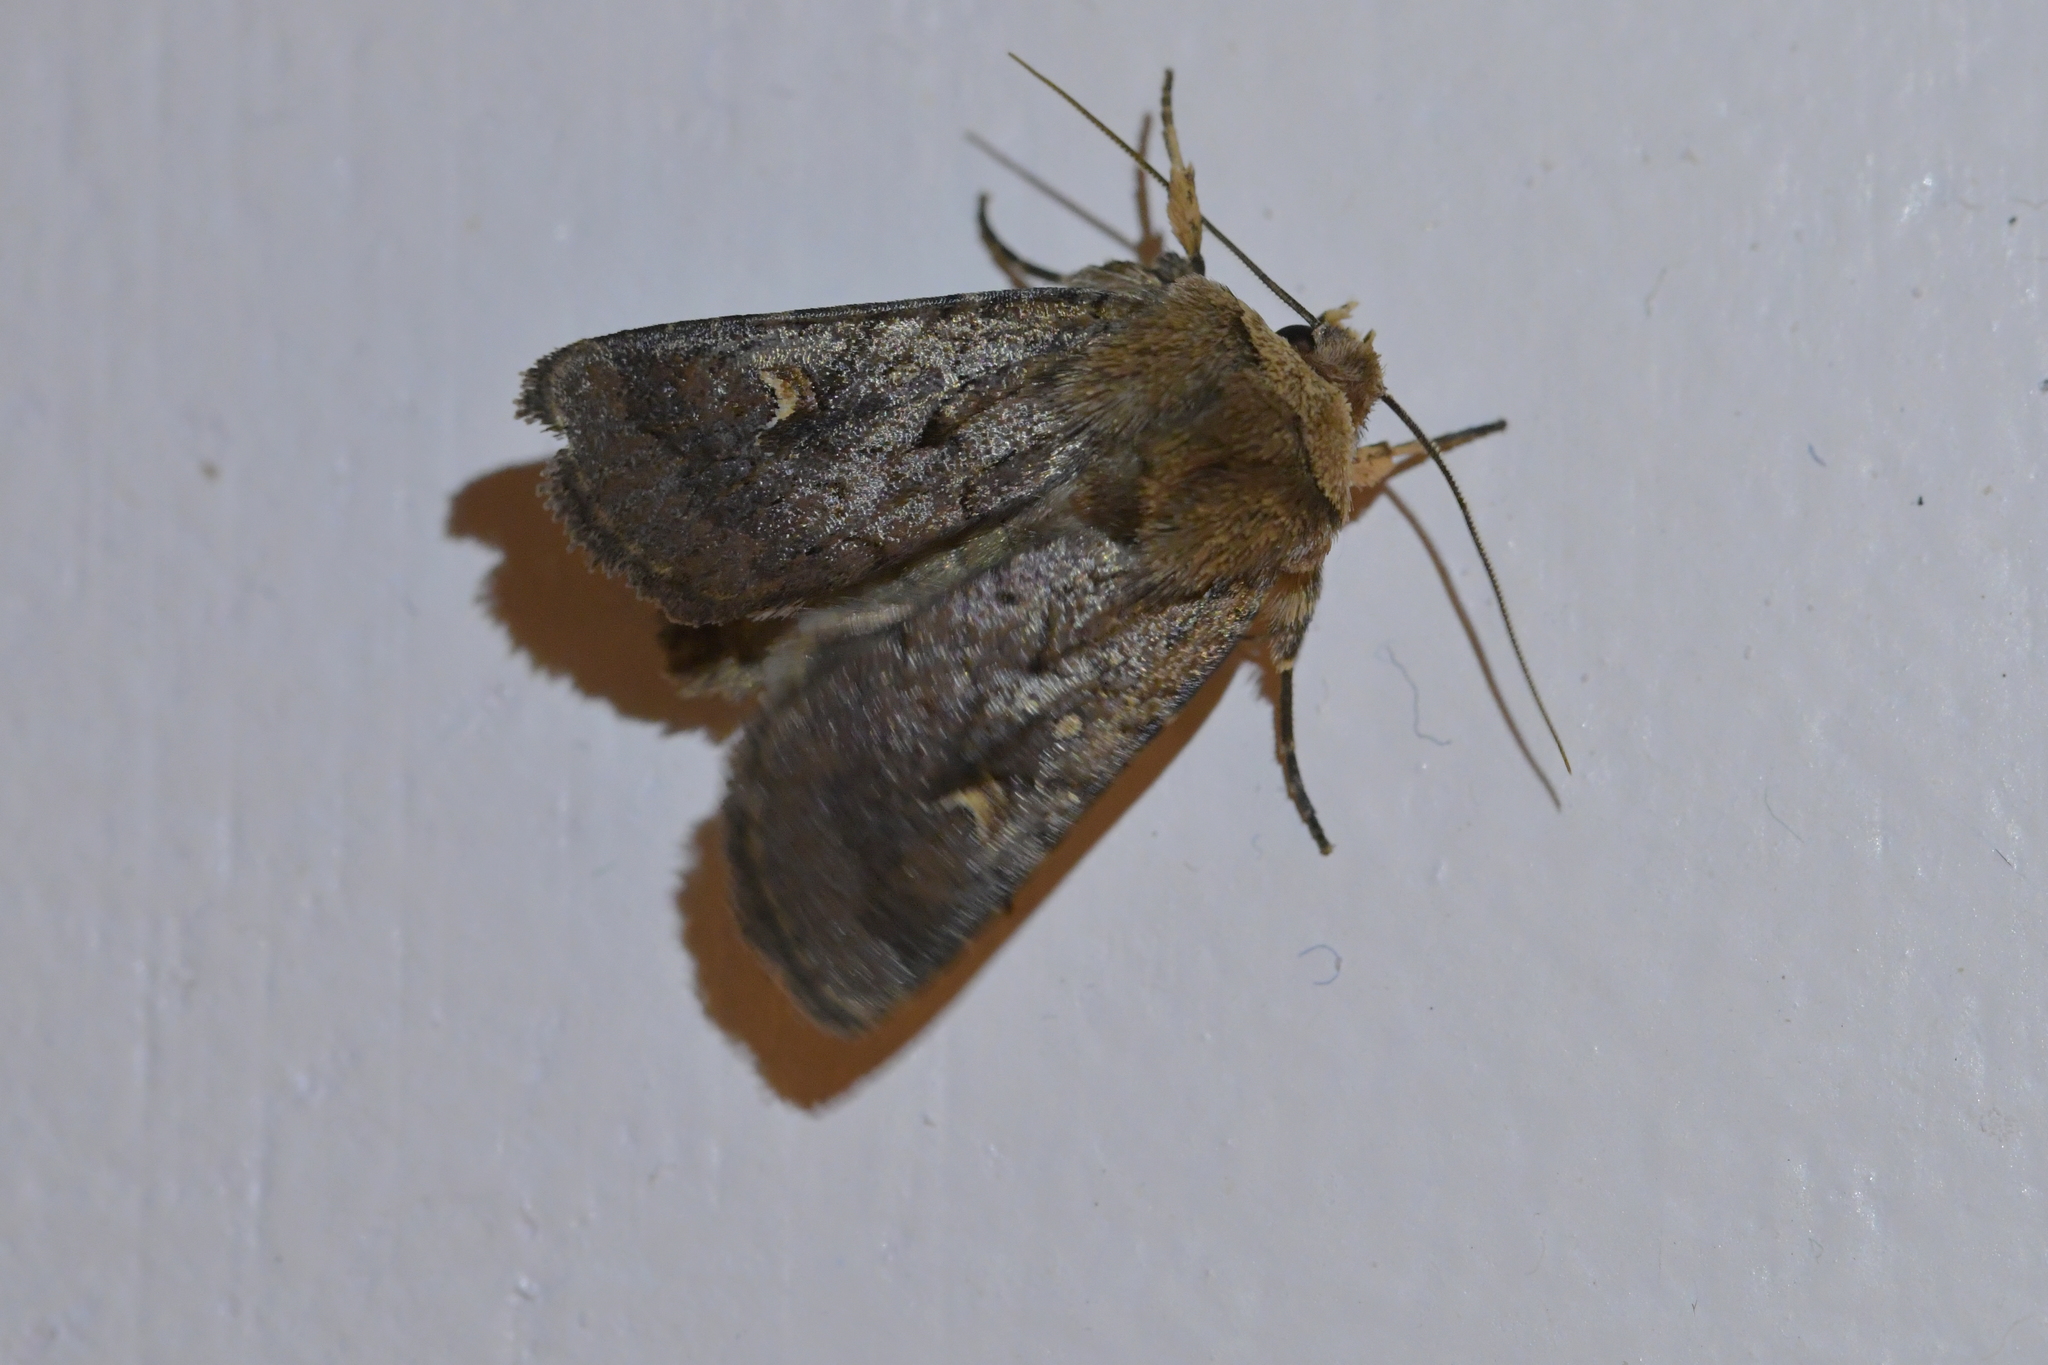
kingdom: Animalia
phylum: Arthropoda
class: Insecta
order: Lepidoptera
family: Noctuidae
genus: Proteuxoa
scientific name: Proteuxoa tetronycha
